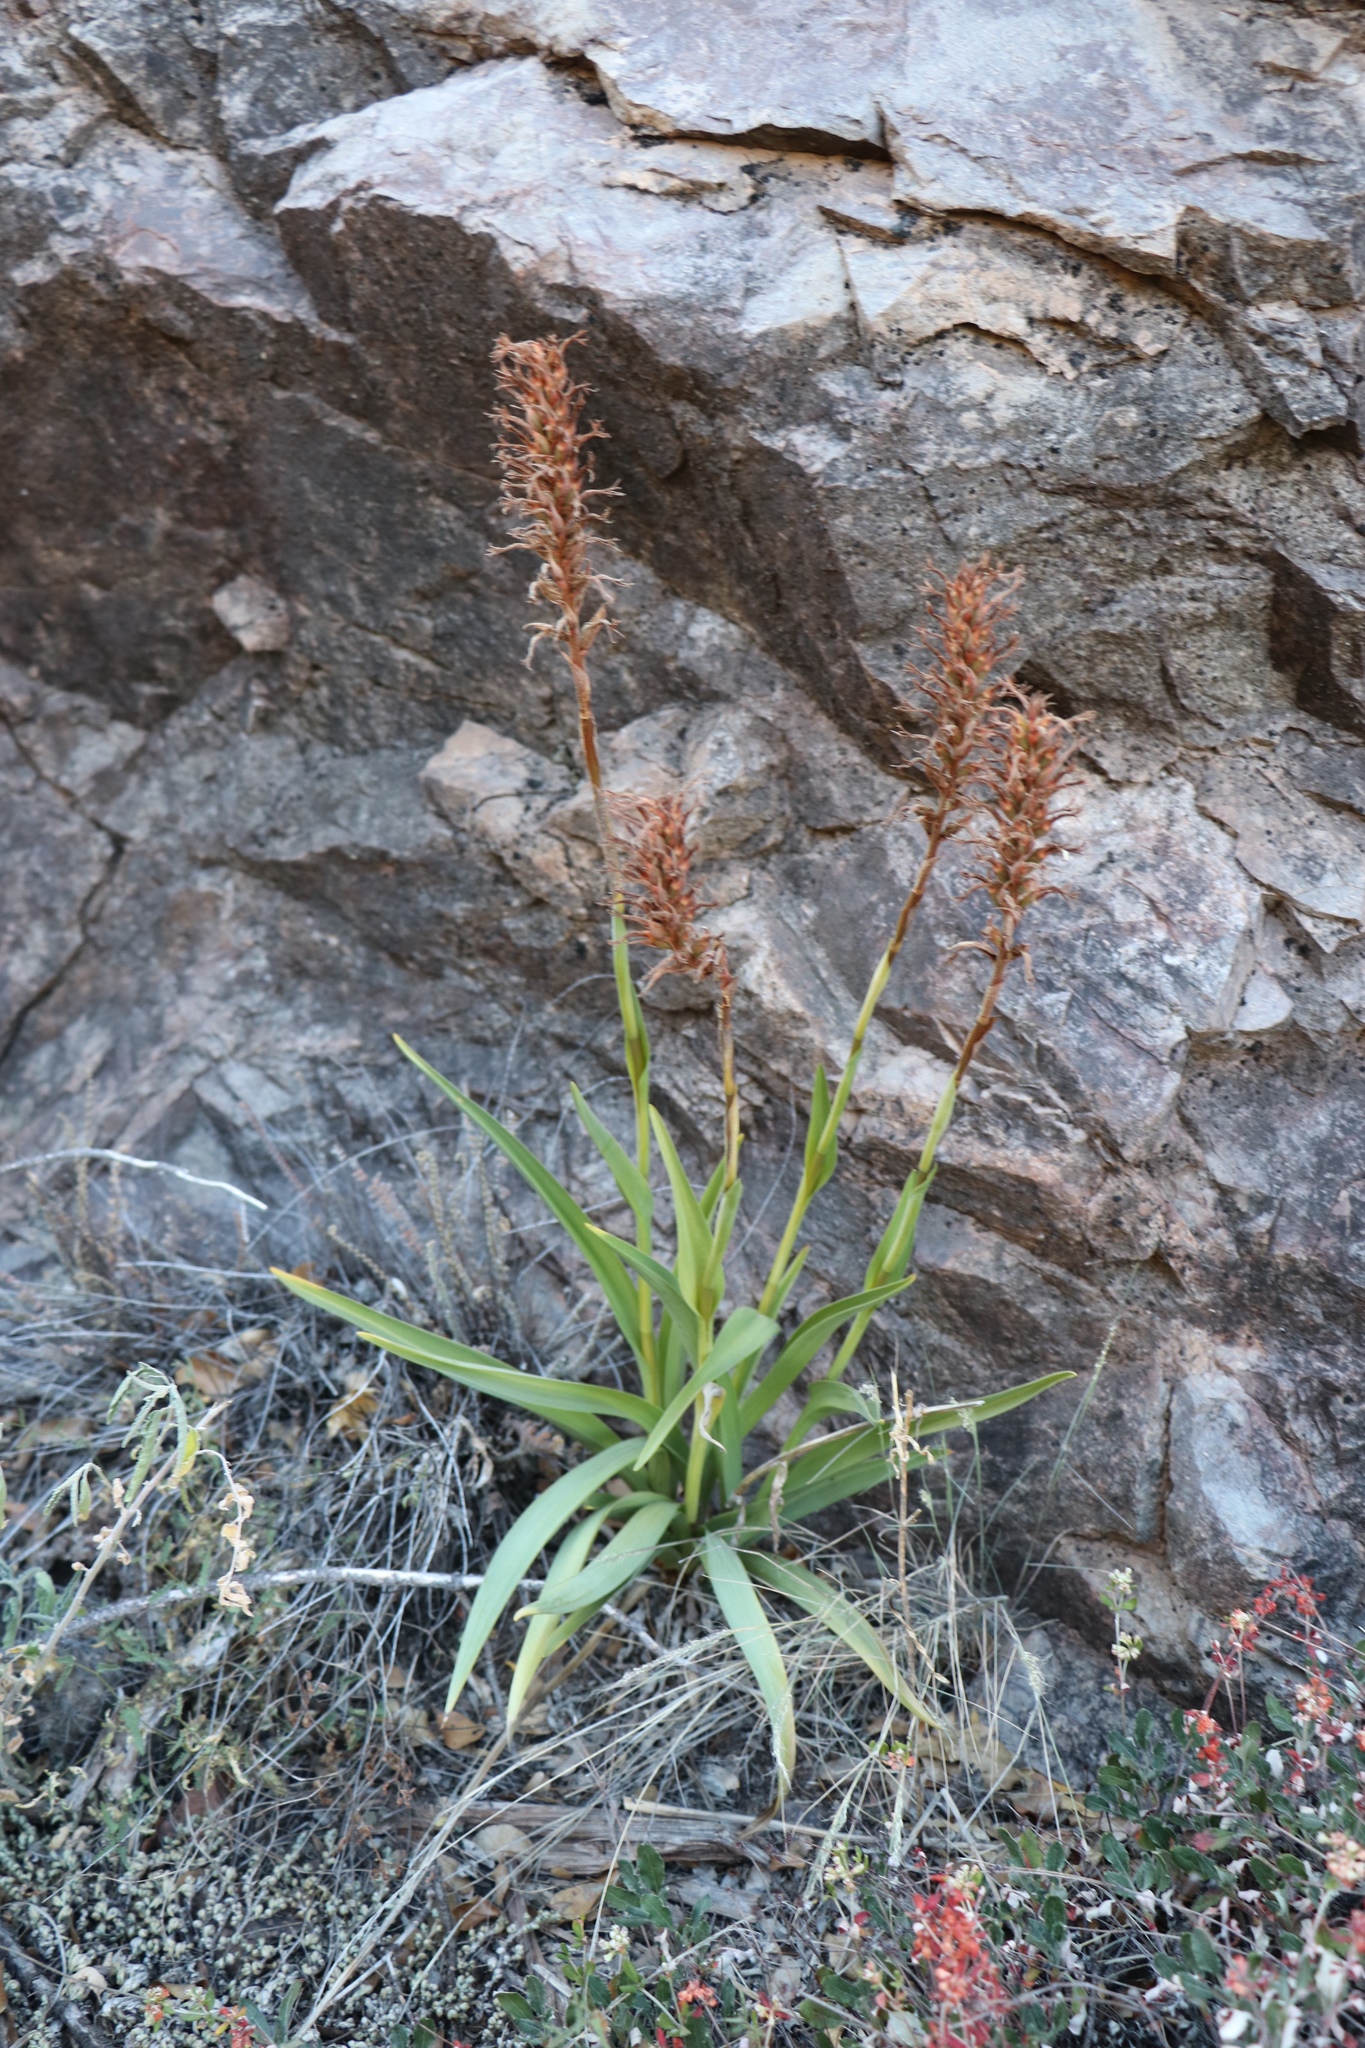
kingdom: Plantae
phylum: Tracheophyta
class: Liliopsida
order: Asparagales
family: Orchidaceae
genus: Dichromanthus
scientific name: Dichromanthus cinnabarinus
